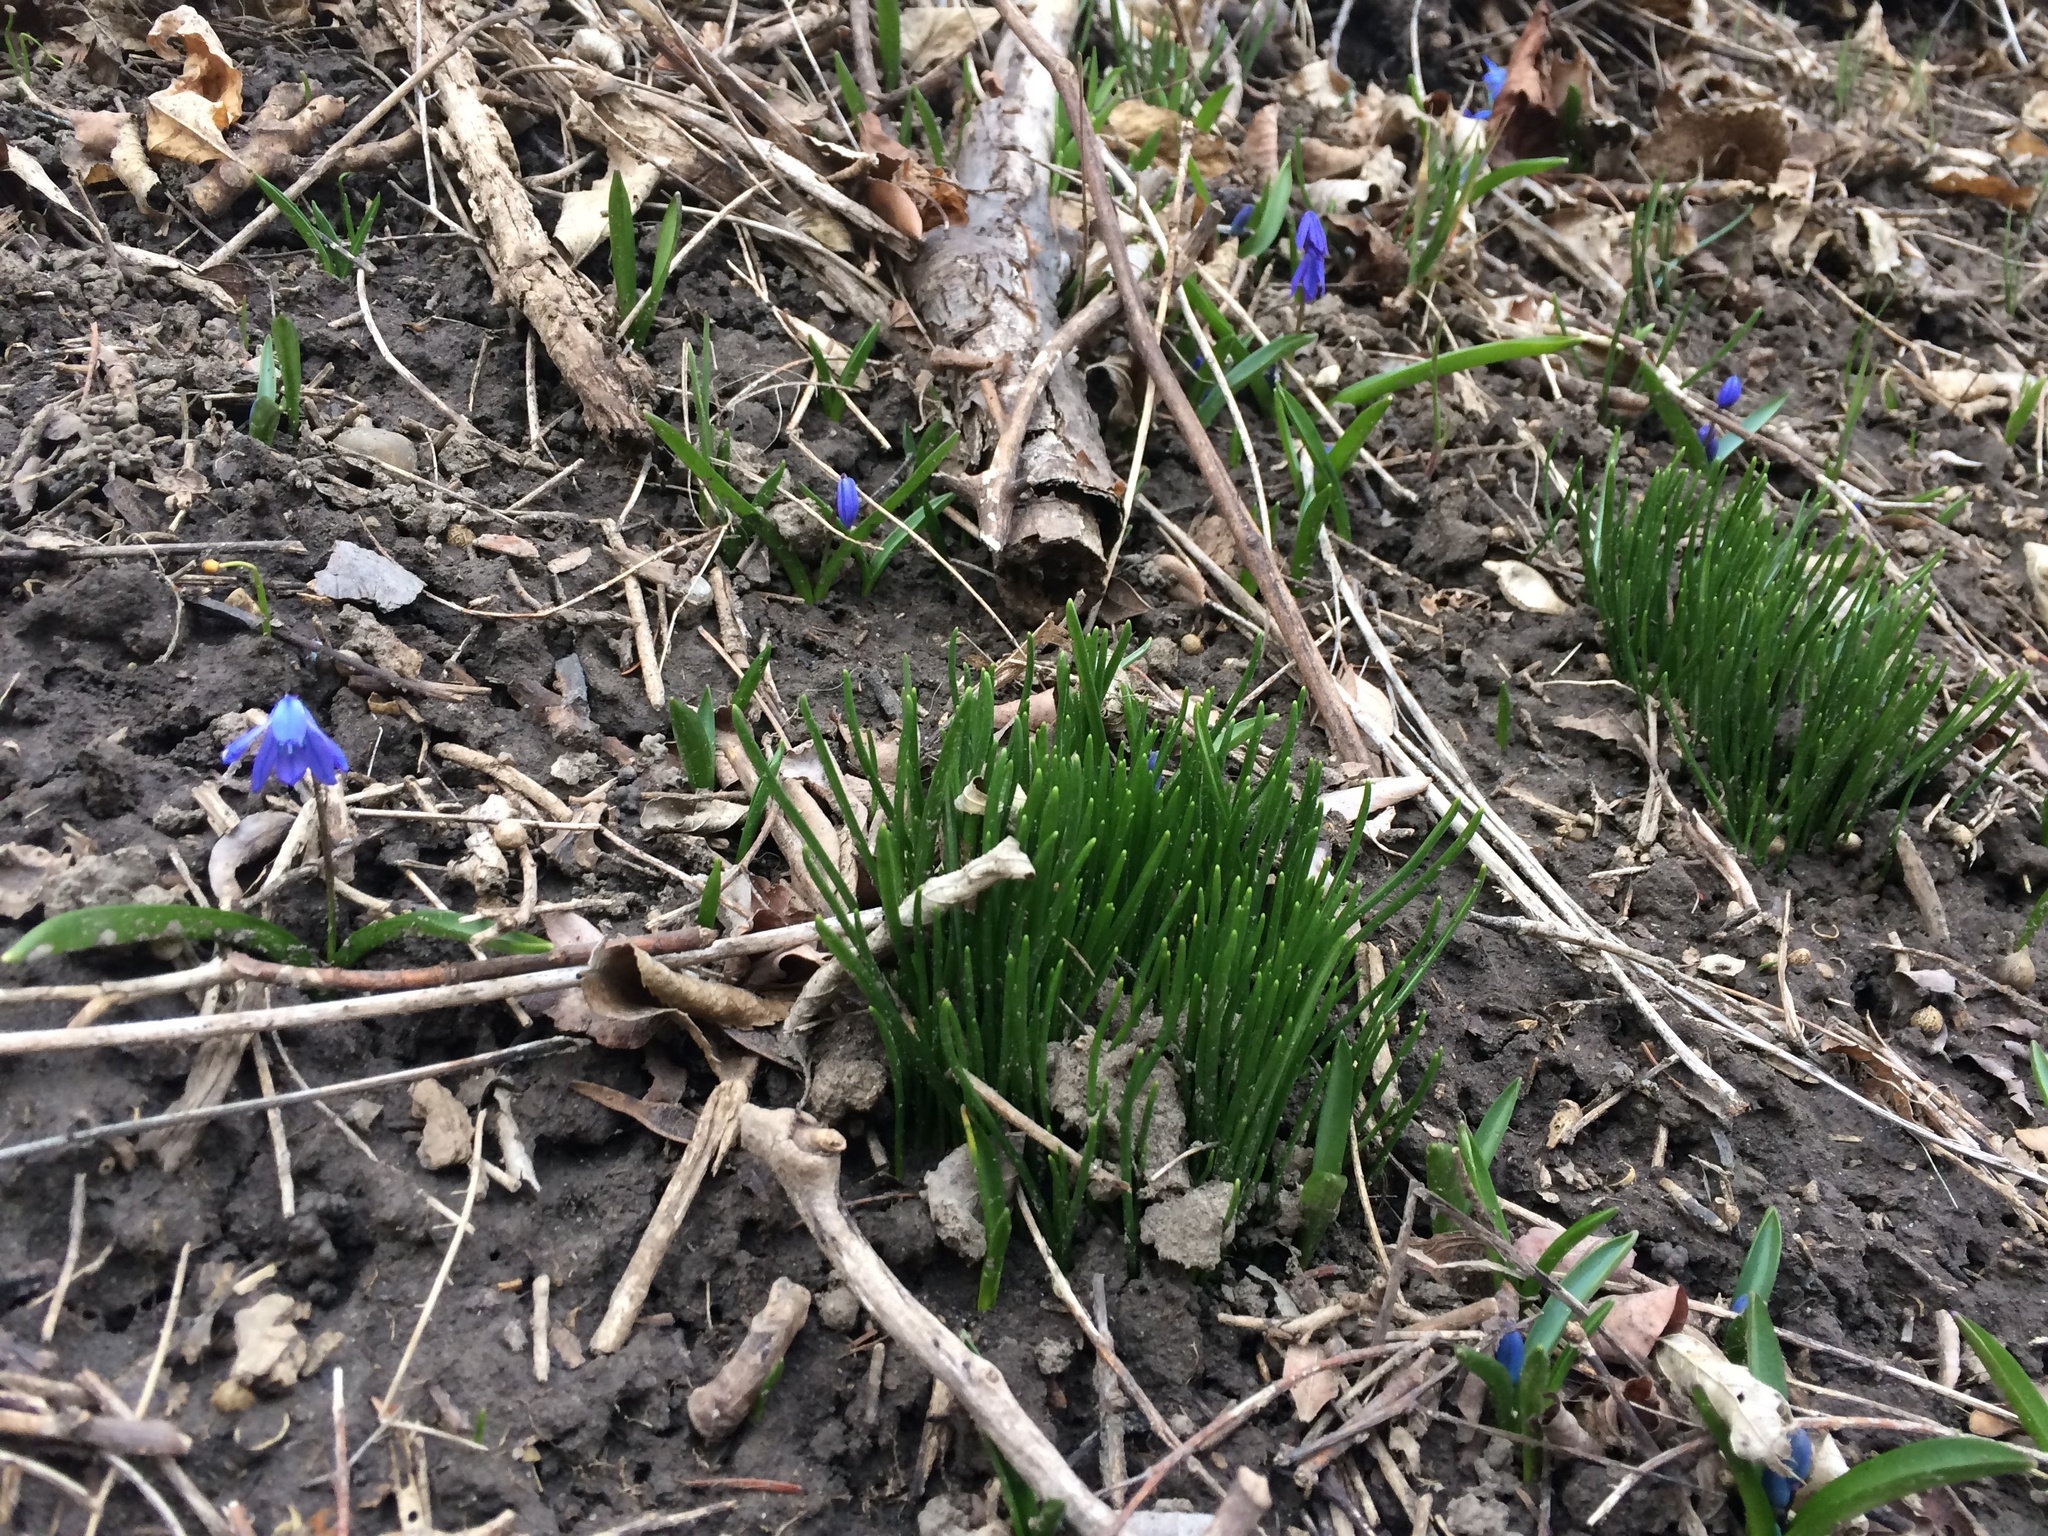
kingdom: Plantae
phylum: Tracheophyta
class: Liliopsida
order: Asparagales
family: Asparagaceae
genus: Scilla
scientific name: Scilla siberica
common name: Siberian squill
